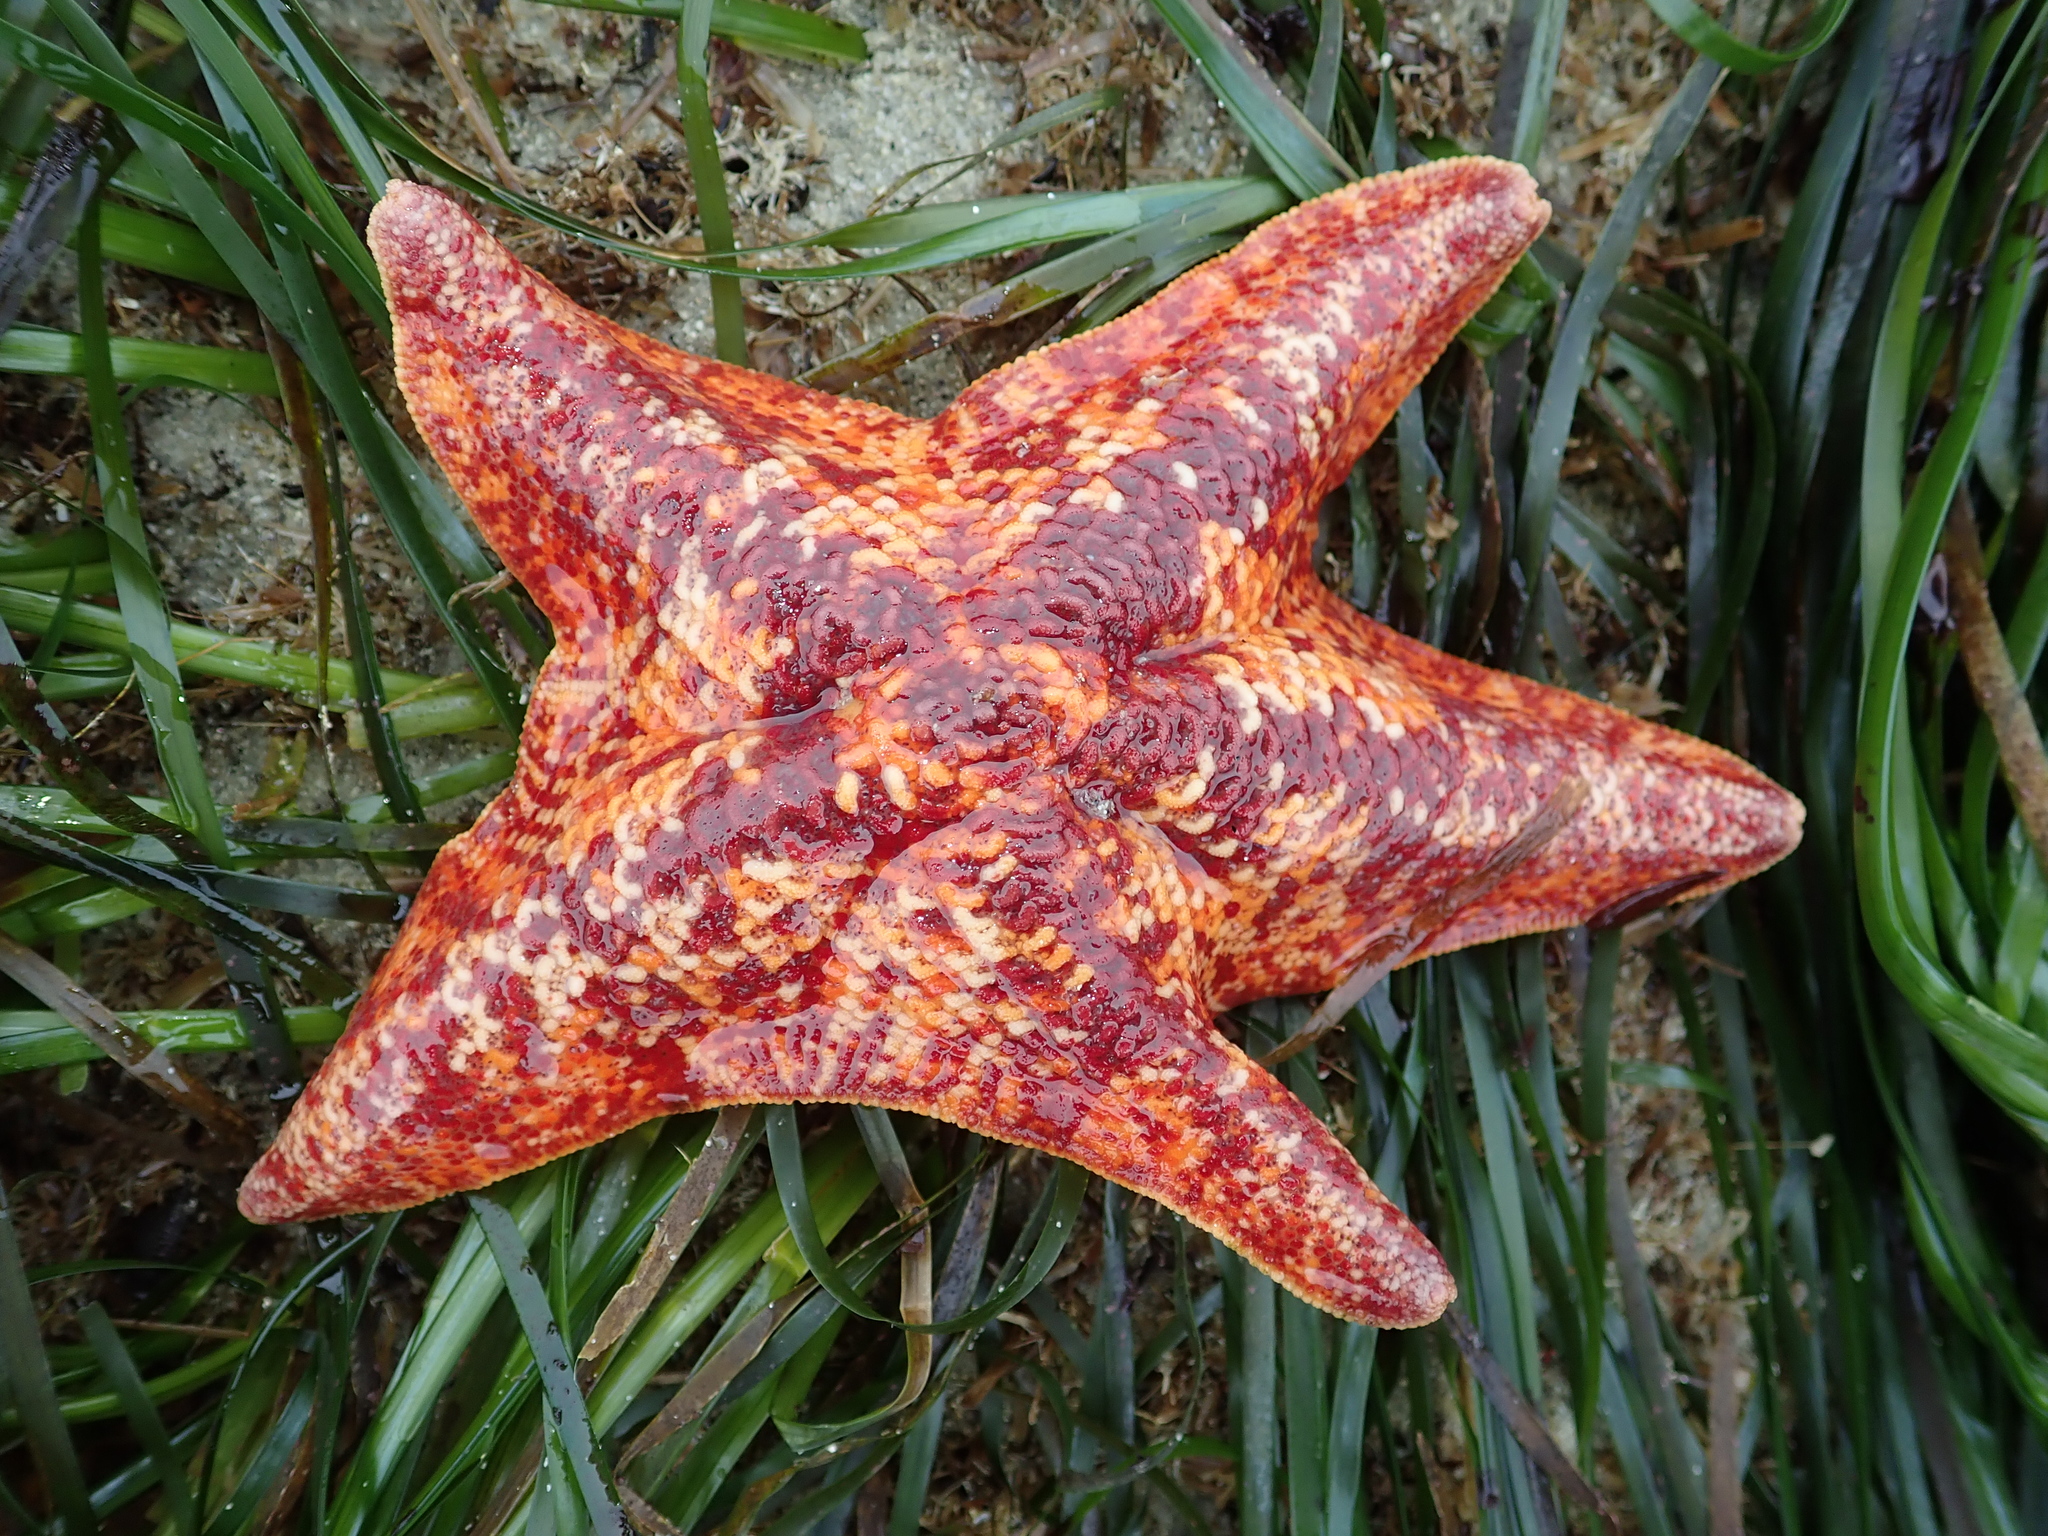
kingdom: Animalia
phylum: Echinodermata
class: Asteroidea
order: Valvatida
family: Asterinidae
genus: Patiria
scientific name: Patiria miniata
